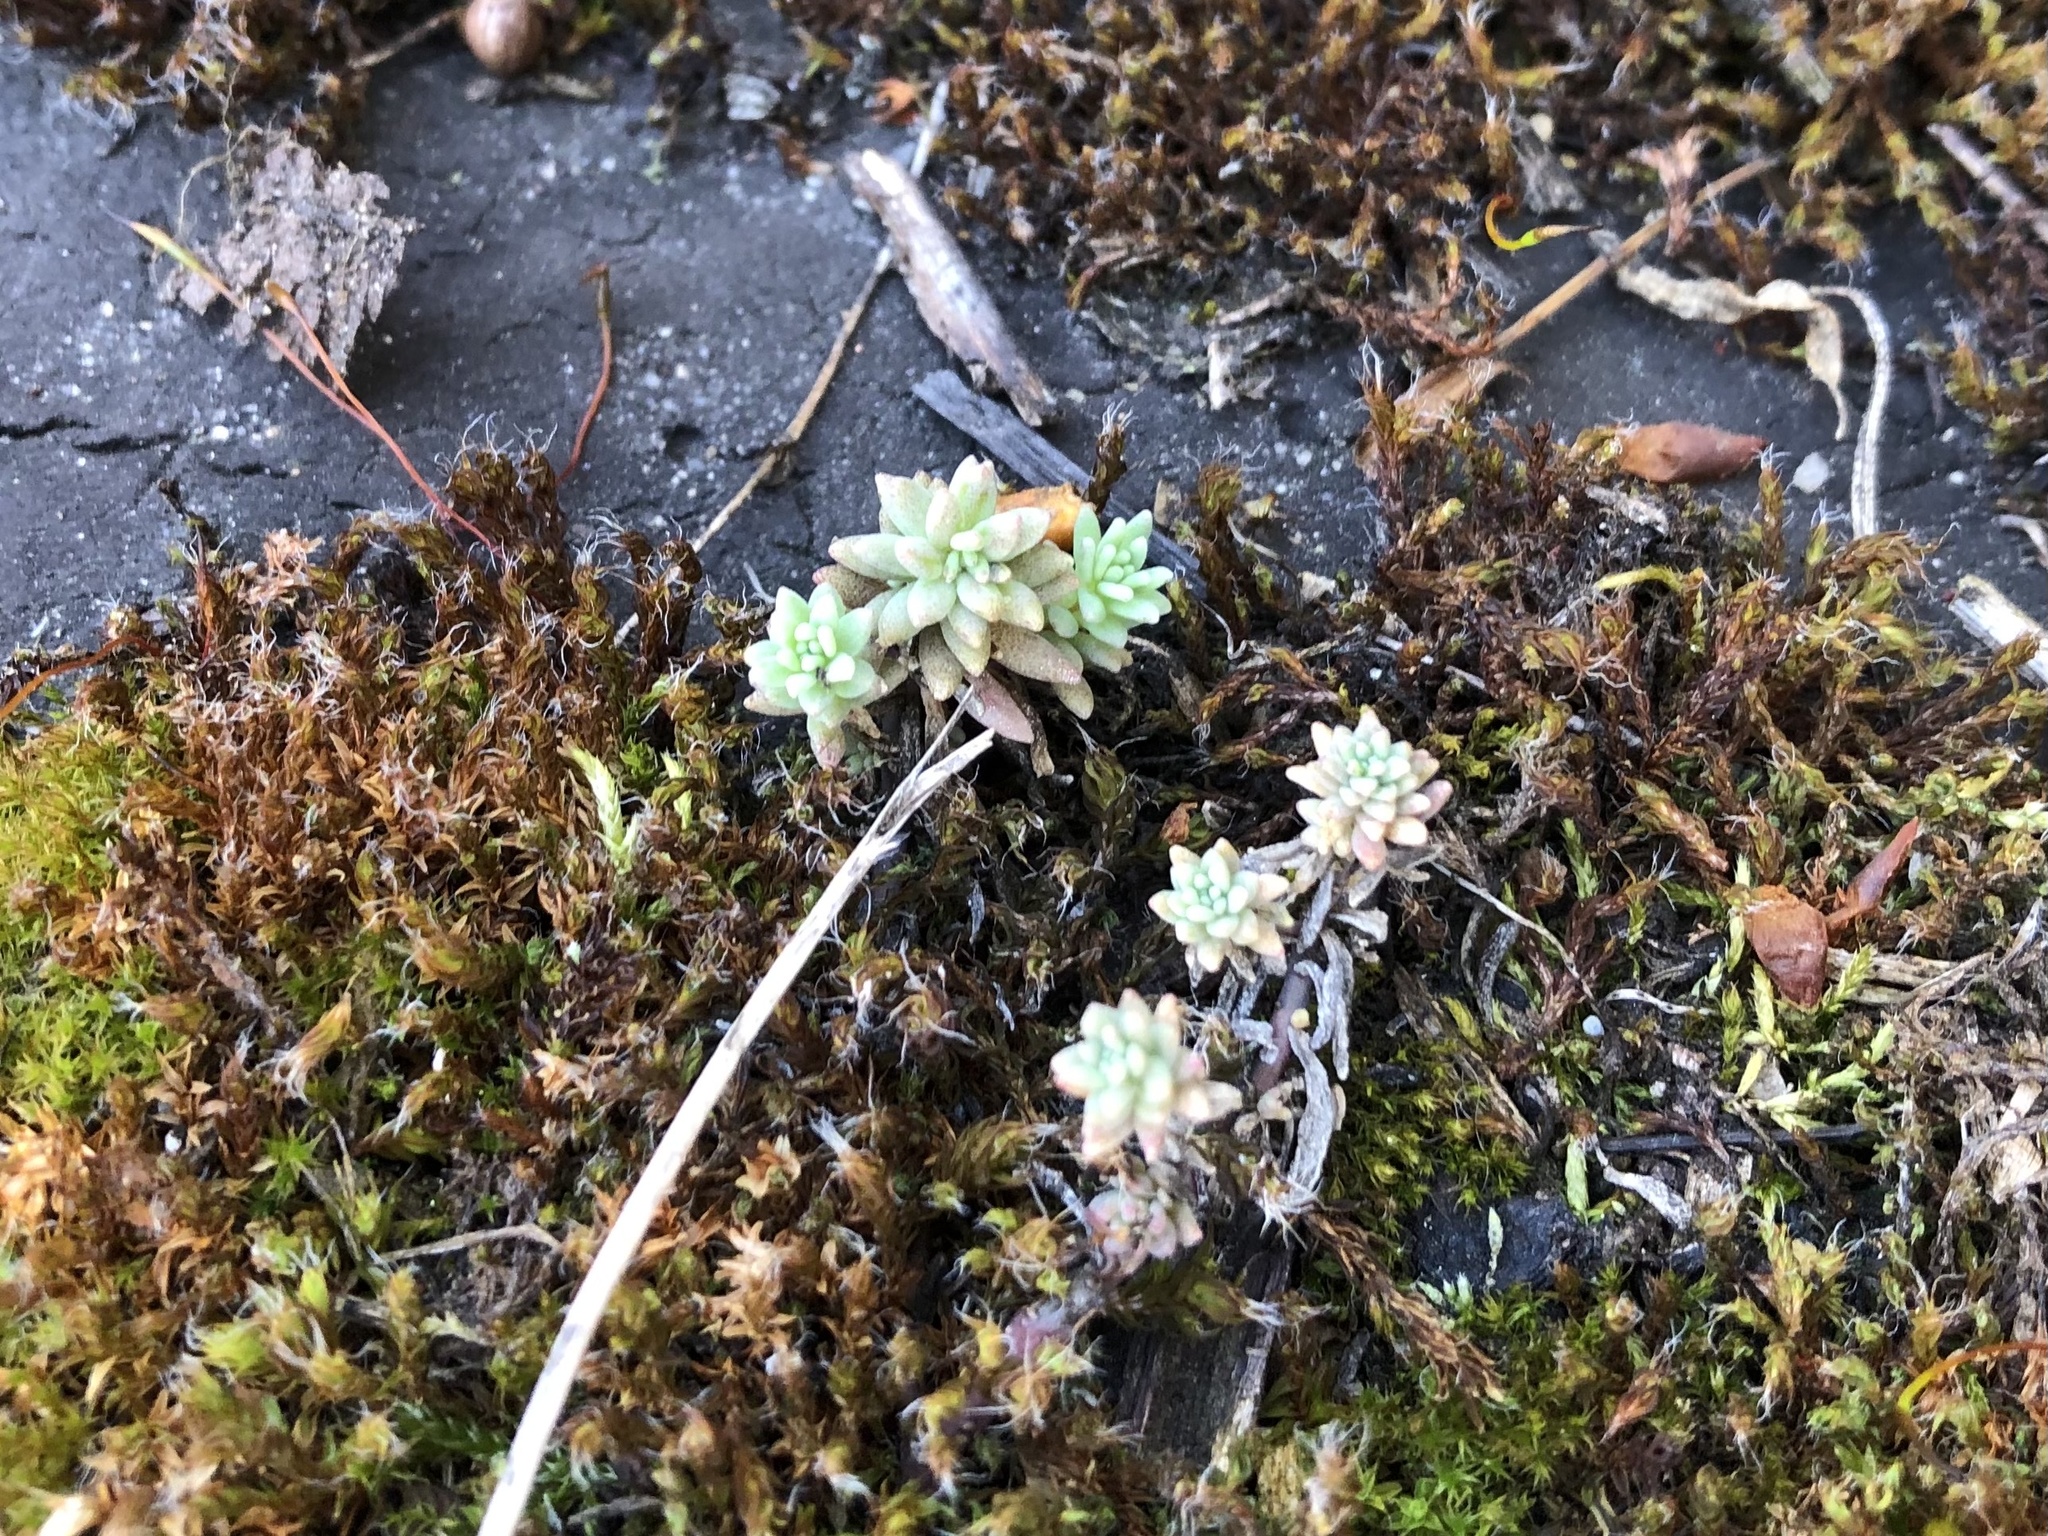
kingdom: Plantae
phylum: Tracheophyta
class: Magnoliopsida
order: Saxifragales
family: Crassulaceae
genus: Sedum
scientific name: Sedum hispanicum
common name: Spanish stonecrop
